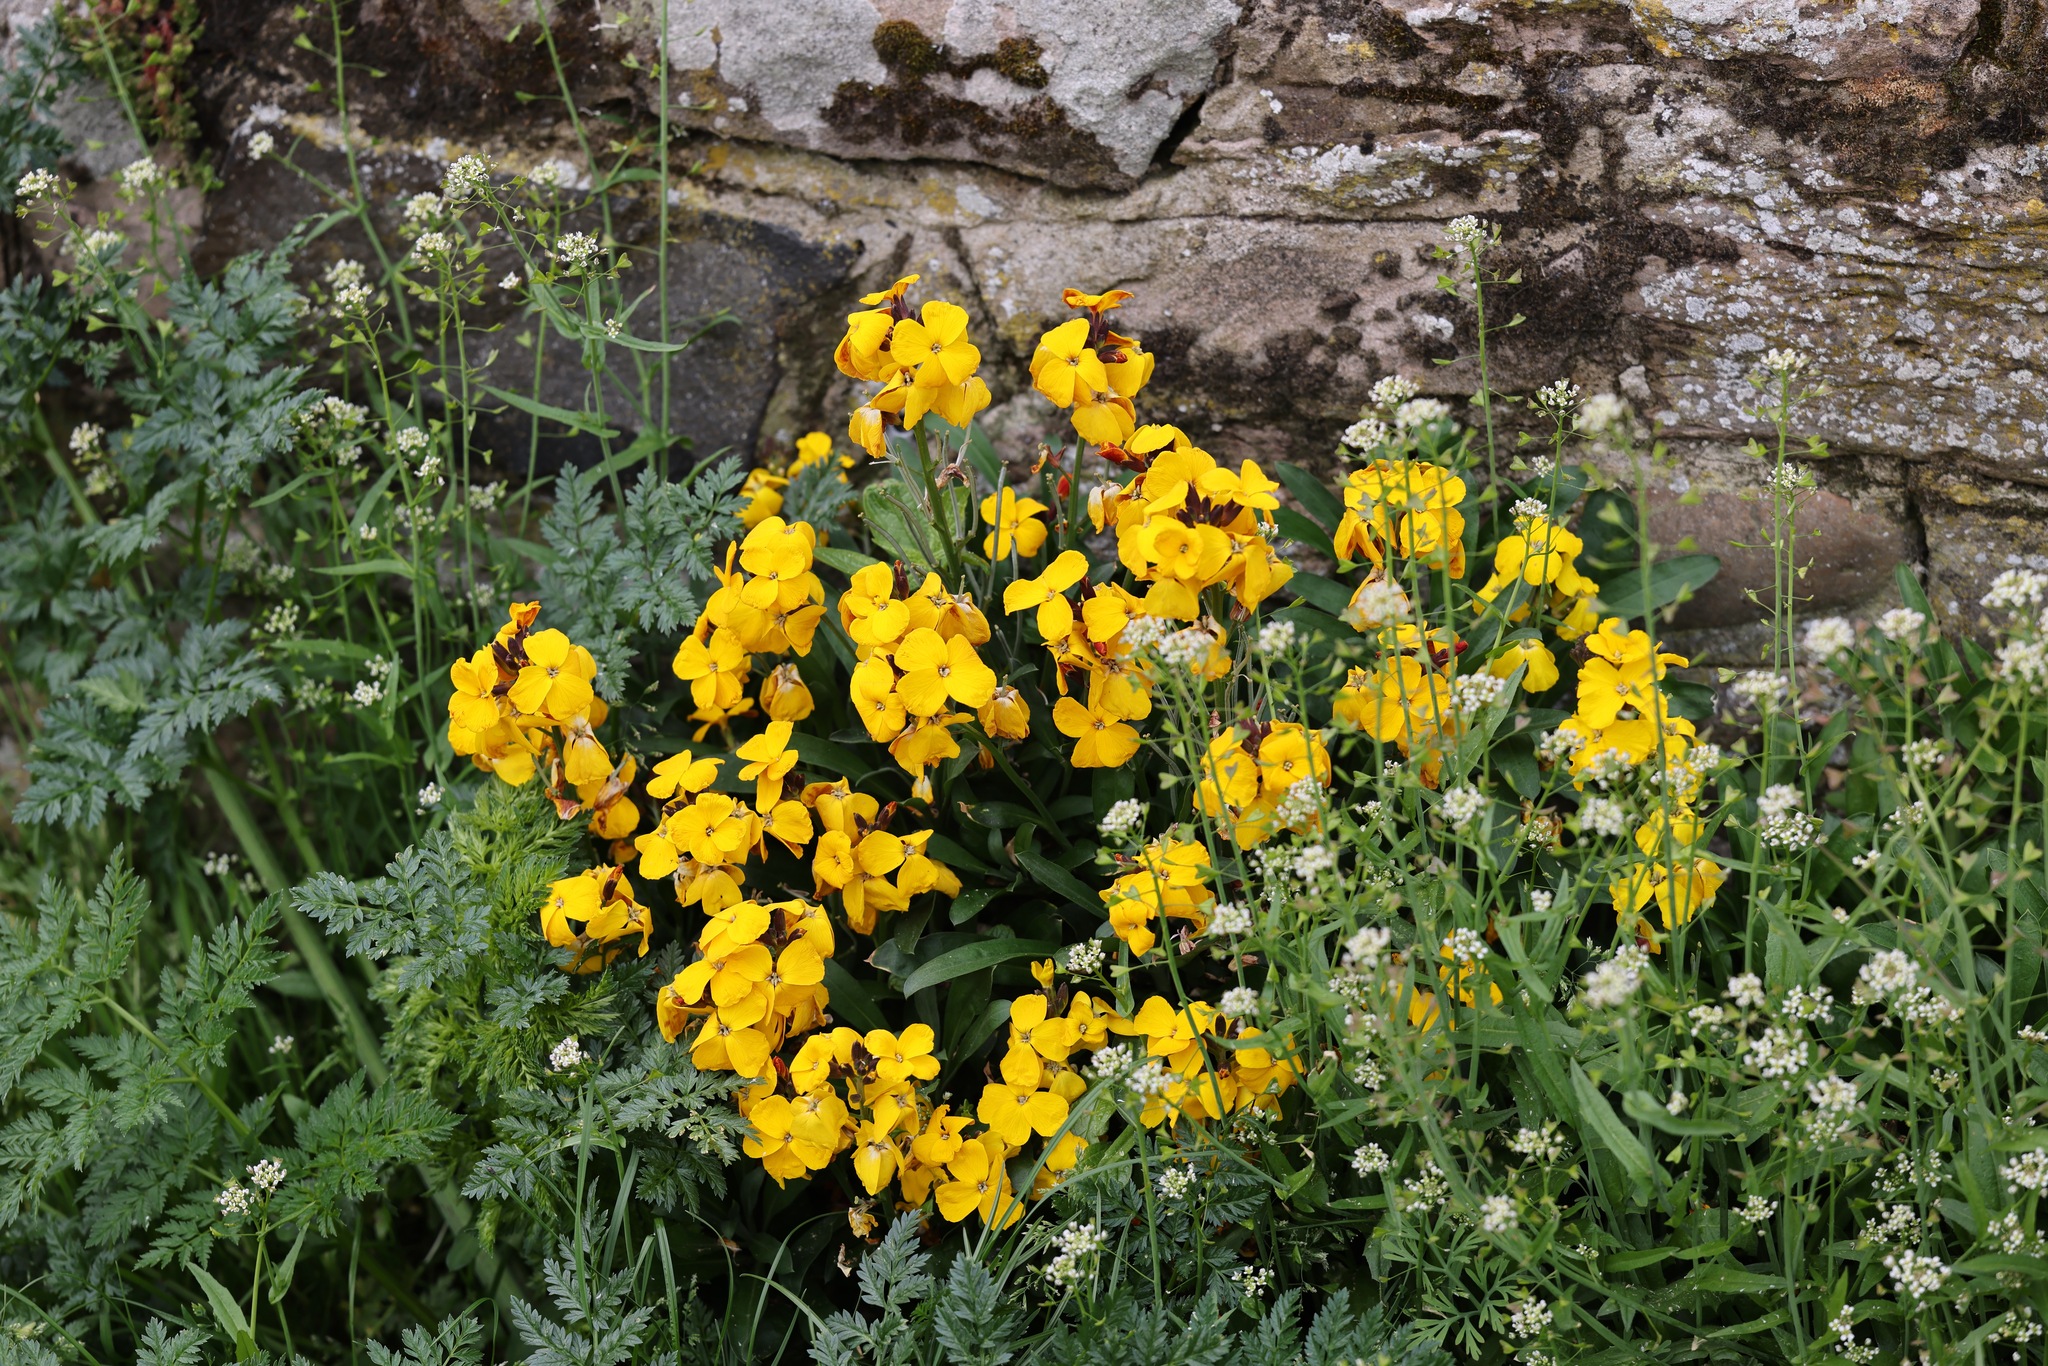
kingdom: Plantae
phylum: Tracheophyta
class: Magnoliopsida
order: Brassicales
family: Brassicaceae
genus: Erysimum
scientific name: Erysimum cheiri
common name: Wallflower
